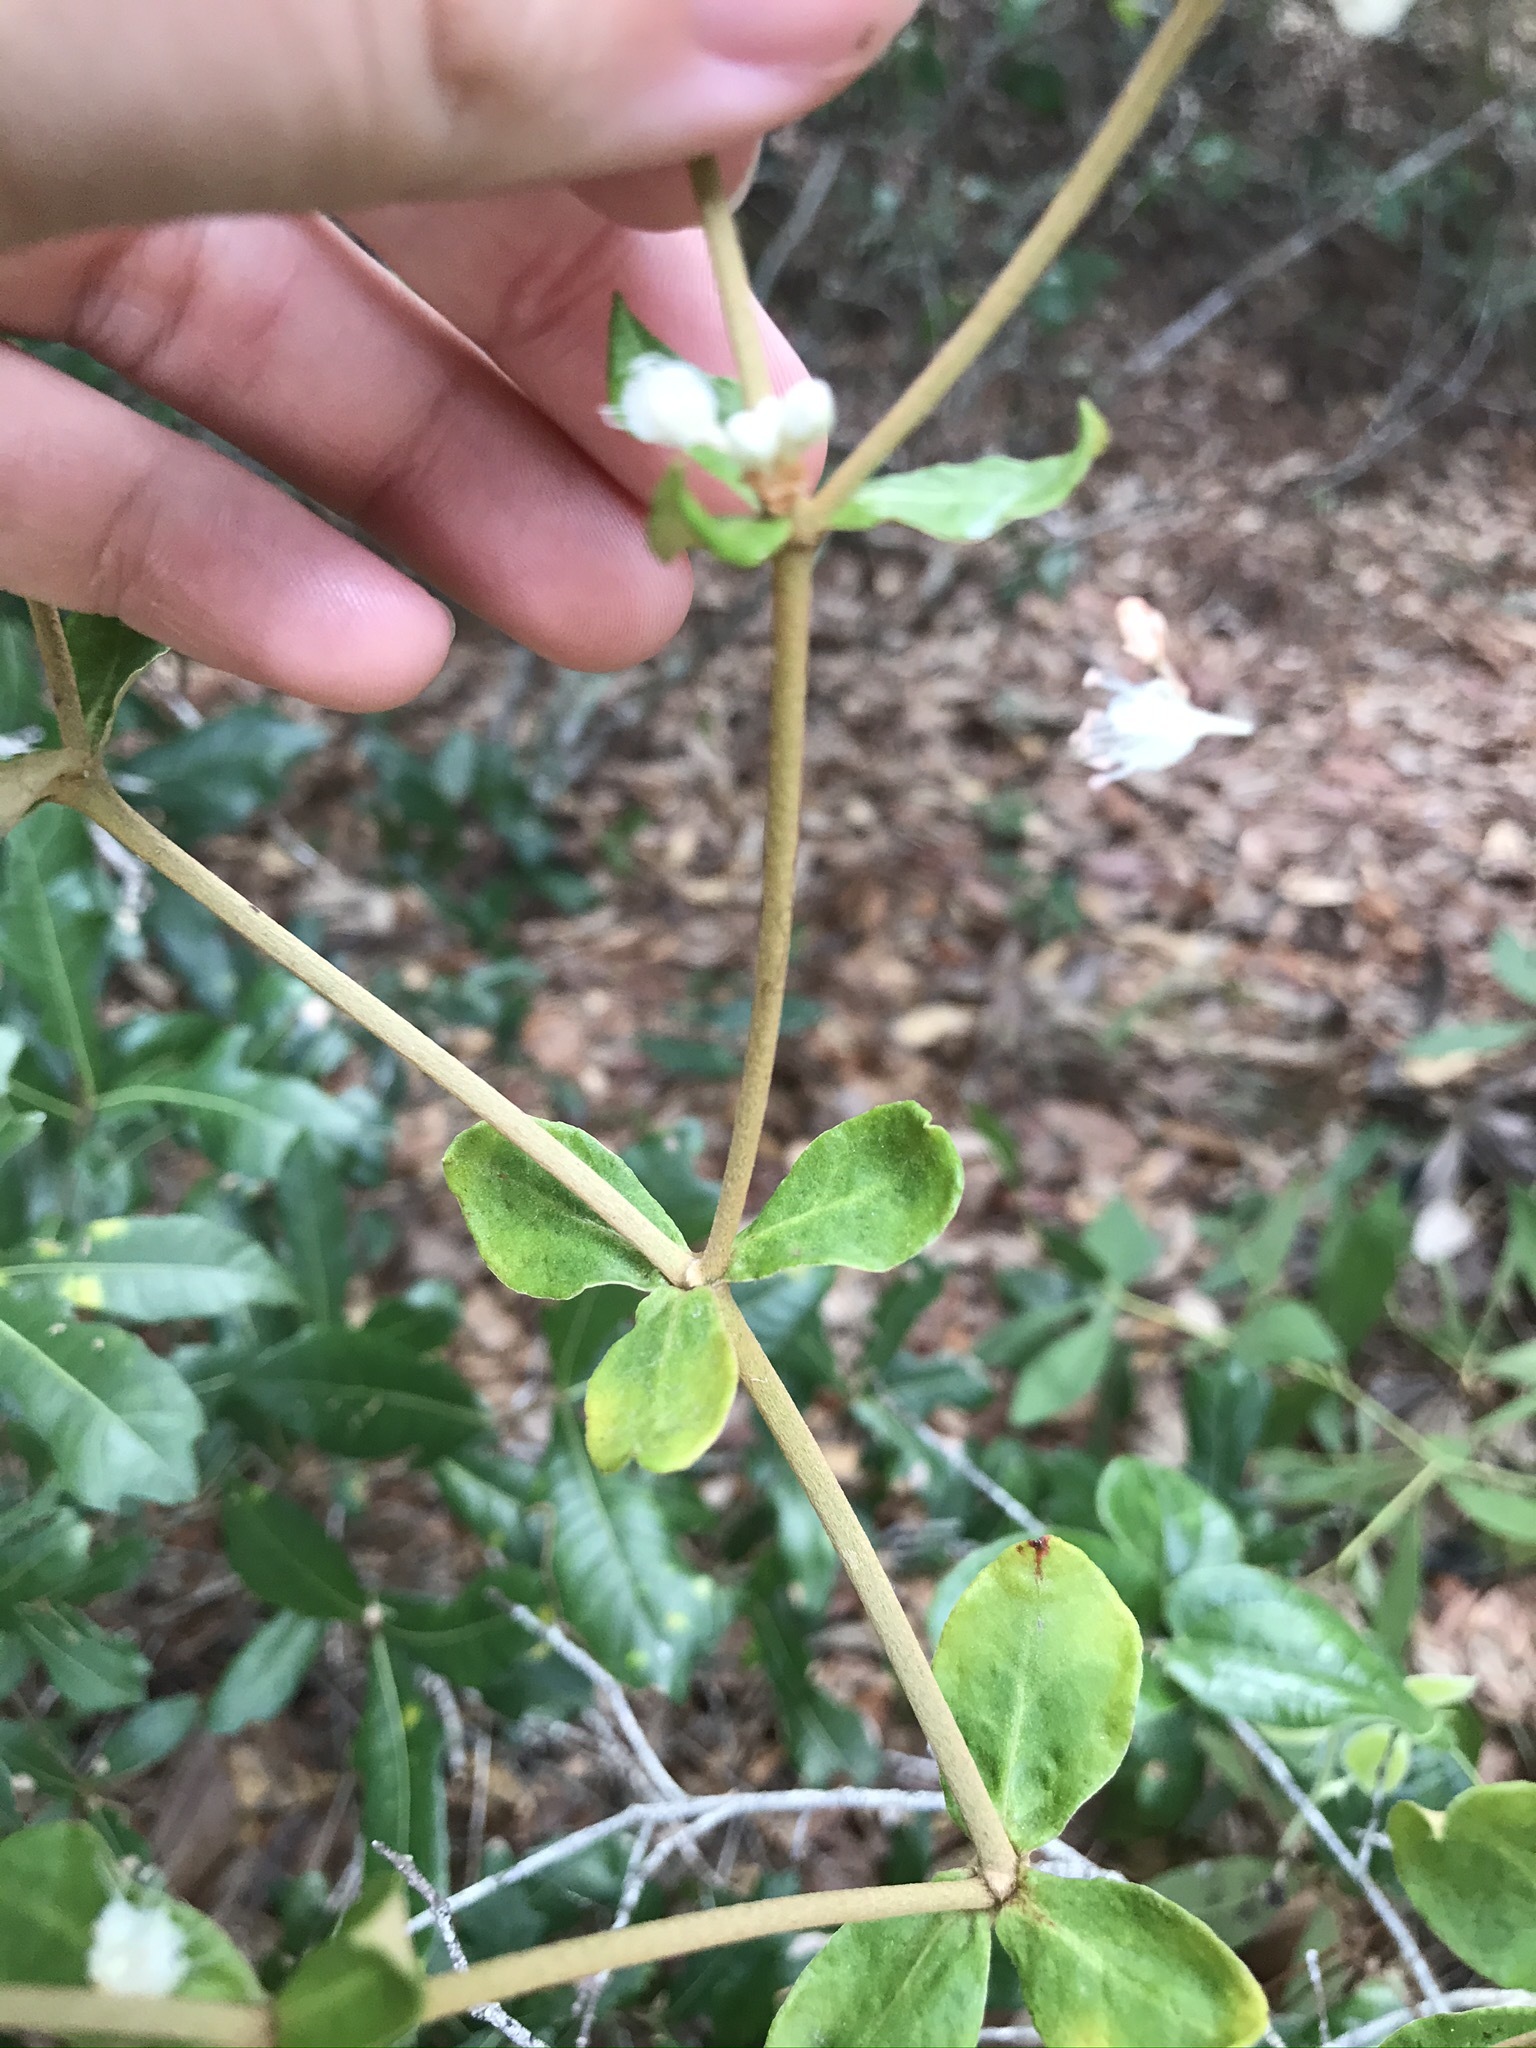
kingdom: Plantae
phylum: Tracheophyta
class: Magnoliopsida
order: Caryophyllales
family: Polygonaceae
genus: Eriogonum
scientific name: Eriogonum tomentosum
